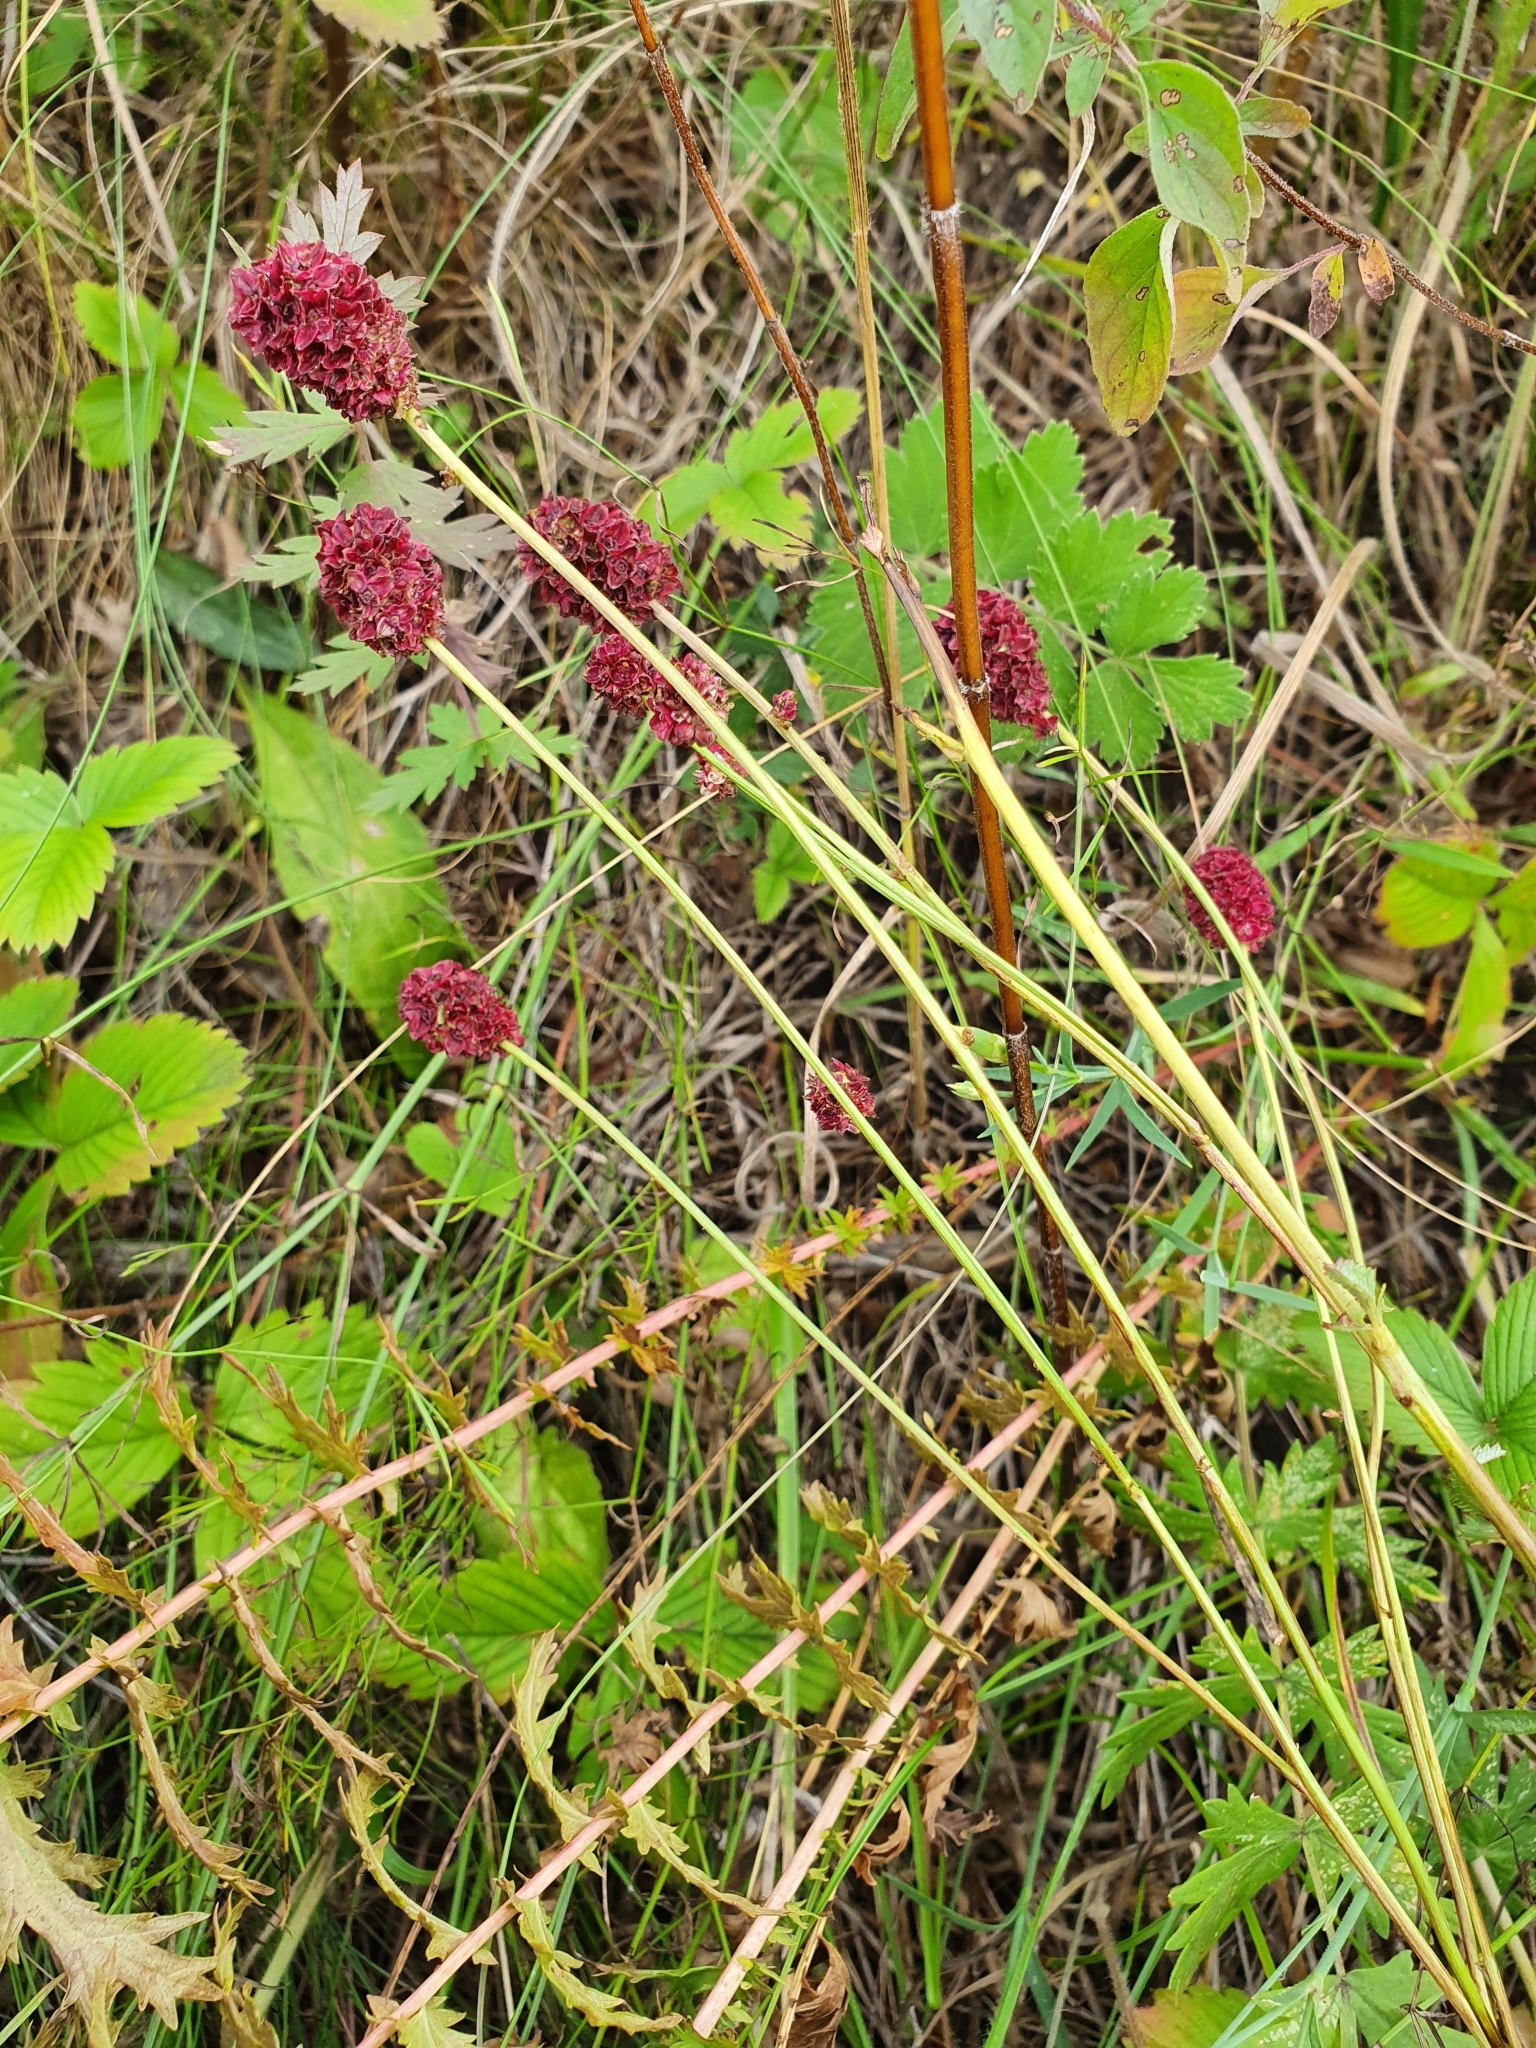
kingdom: Plantae
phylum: Tracheophyta
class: Magnoliopsida
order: Rosales
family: Rosaceae
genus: Sanguisorba
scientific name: Sanguisorba officinalis
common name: Great burnet
